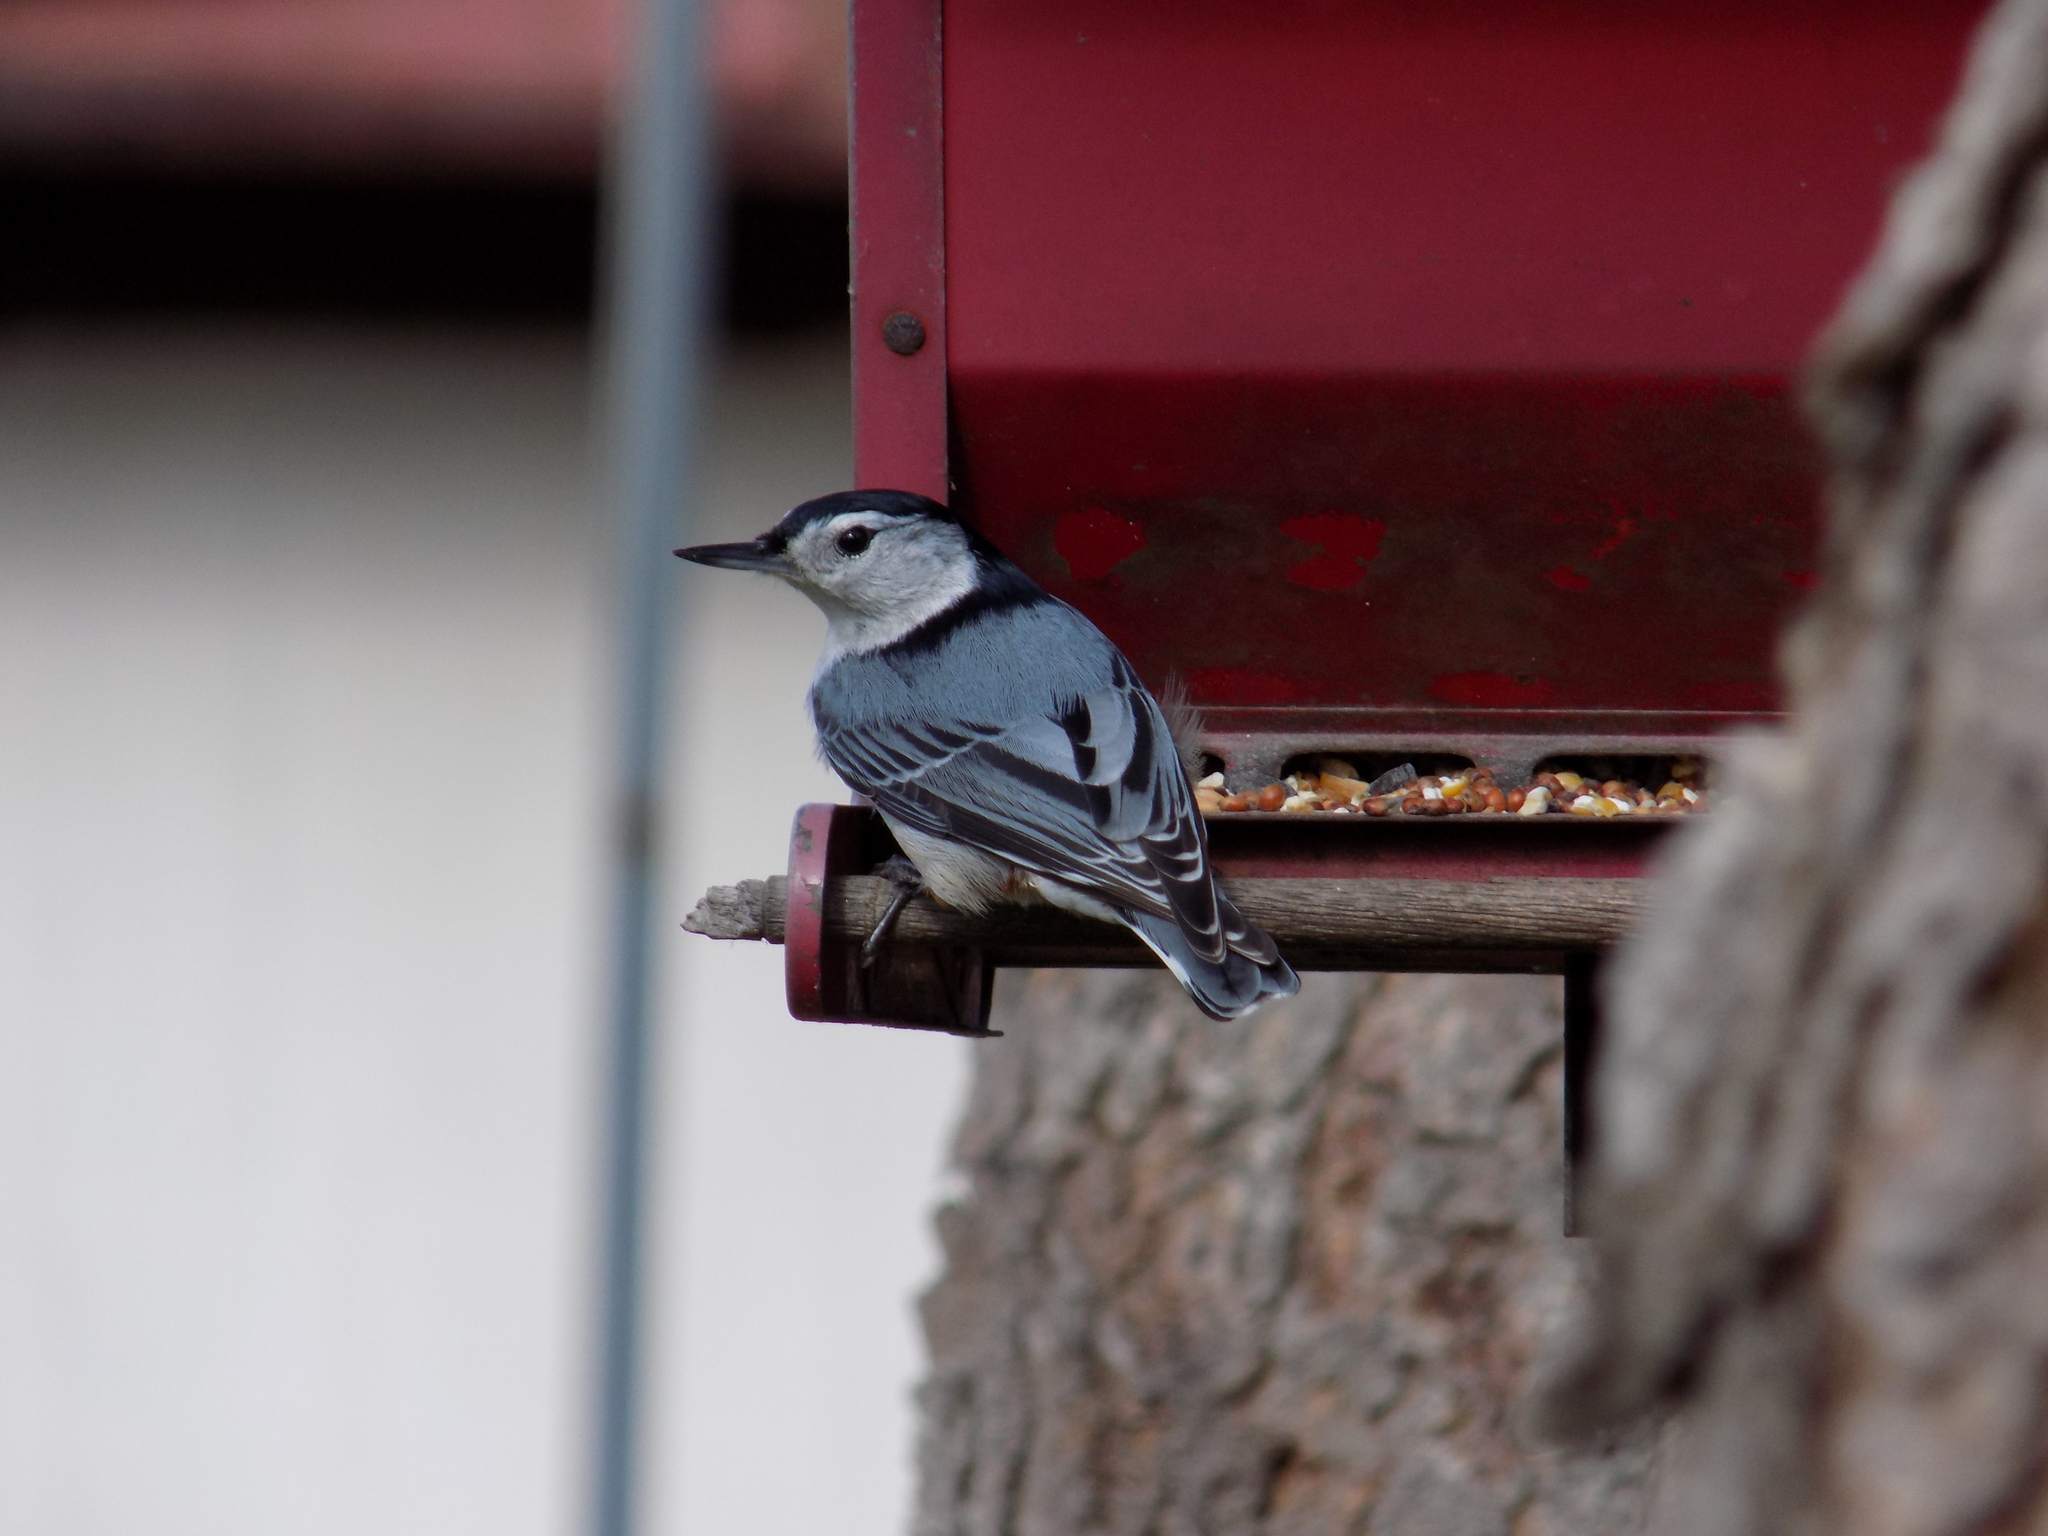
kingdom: Animalia
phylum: Chordata
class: Aves
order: Passeriformes
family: Sittidae
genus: Sitta
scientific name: Sitta carolinensis
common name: White-breasted nuthatch
